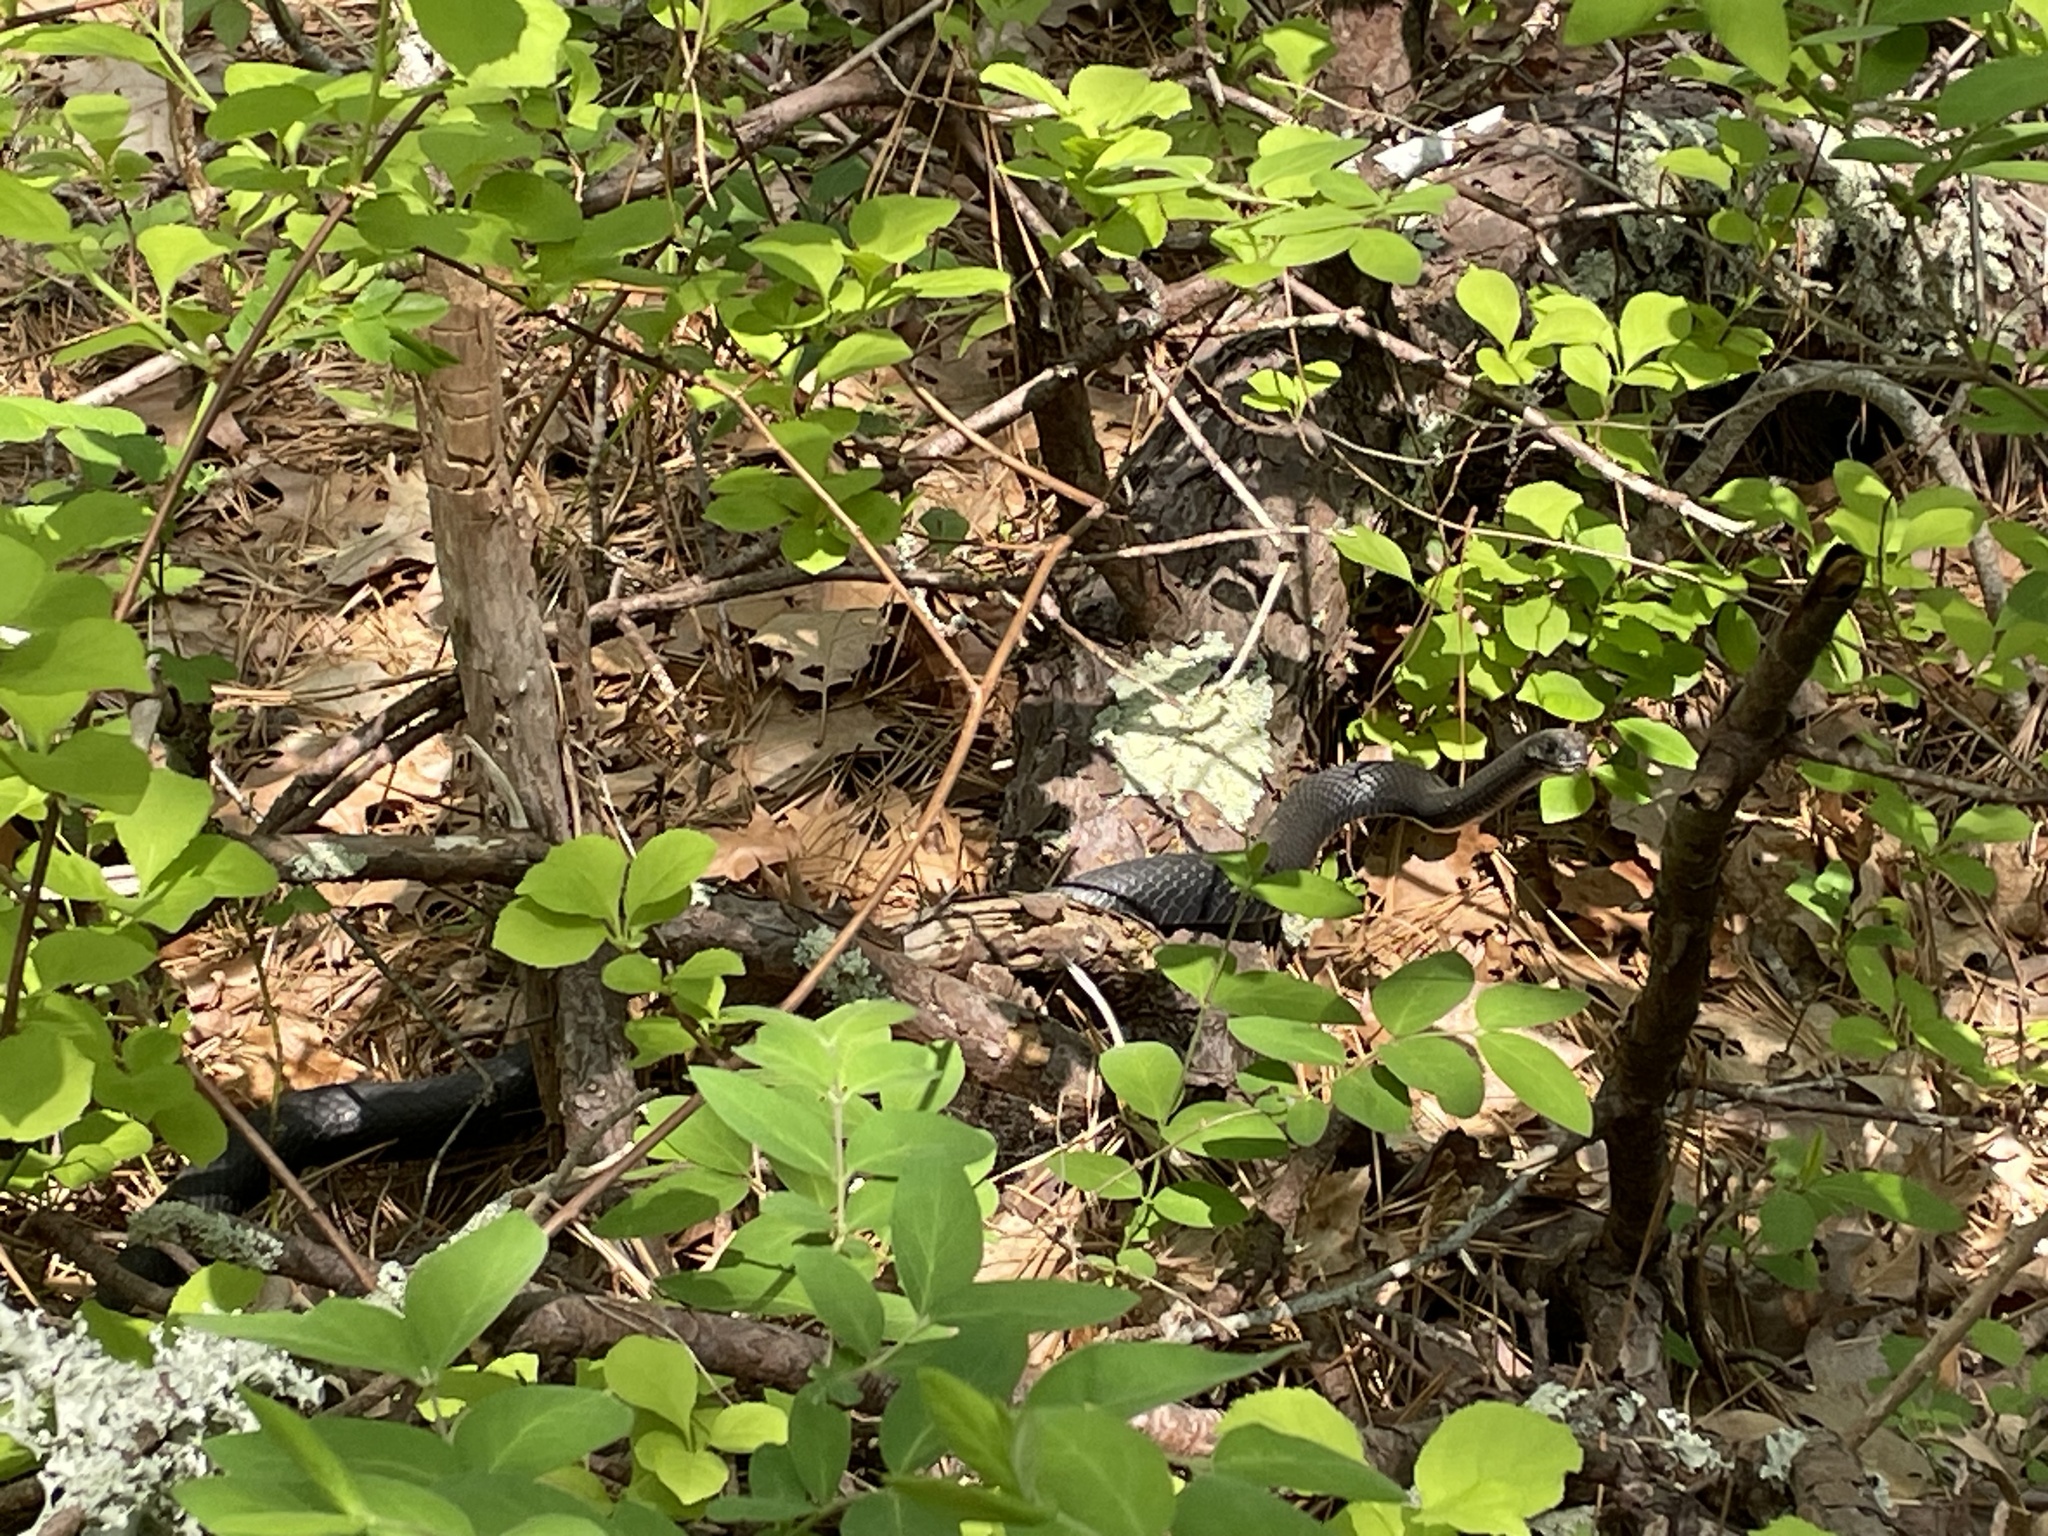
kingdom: Animalia
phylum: Chordata
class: Squamata
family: Colubridae
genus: Coluber
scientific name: Coluber constrictor
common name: Eastern racer
